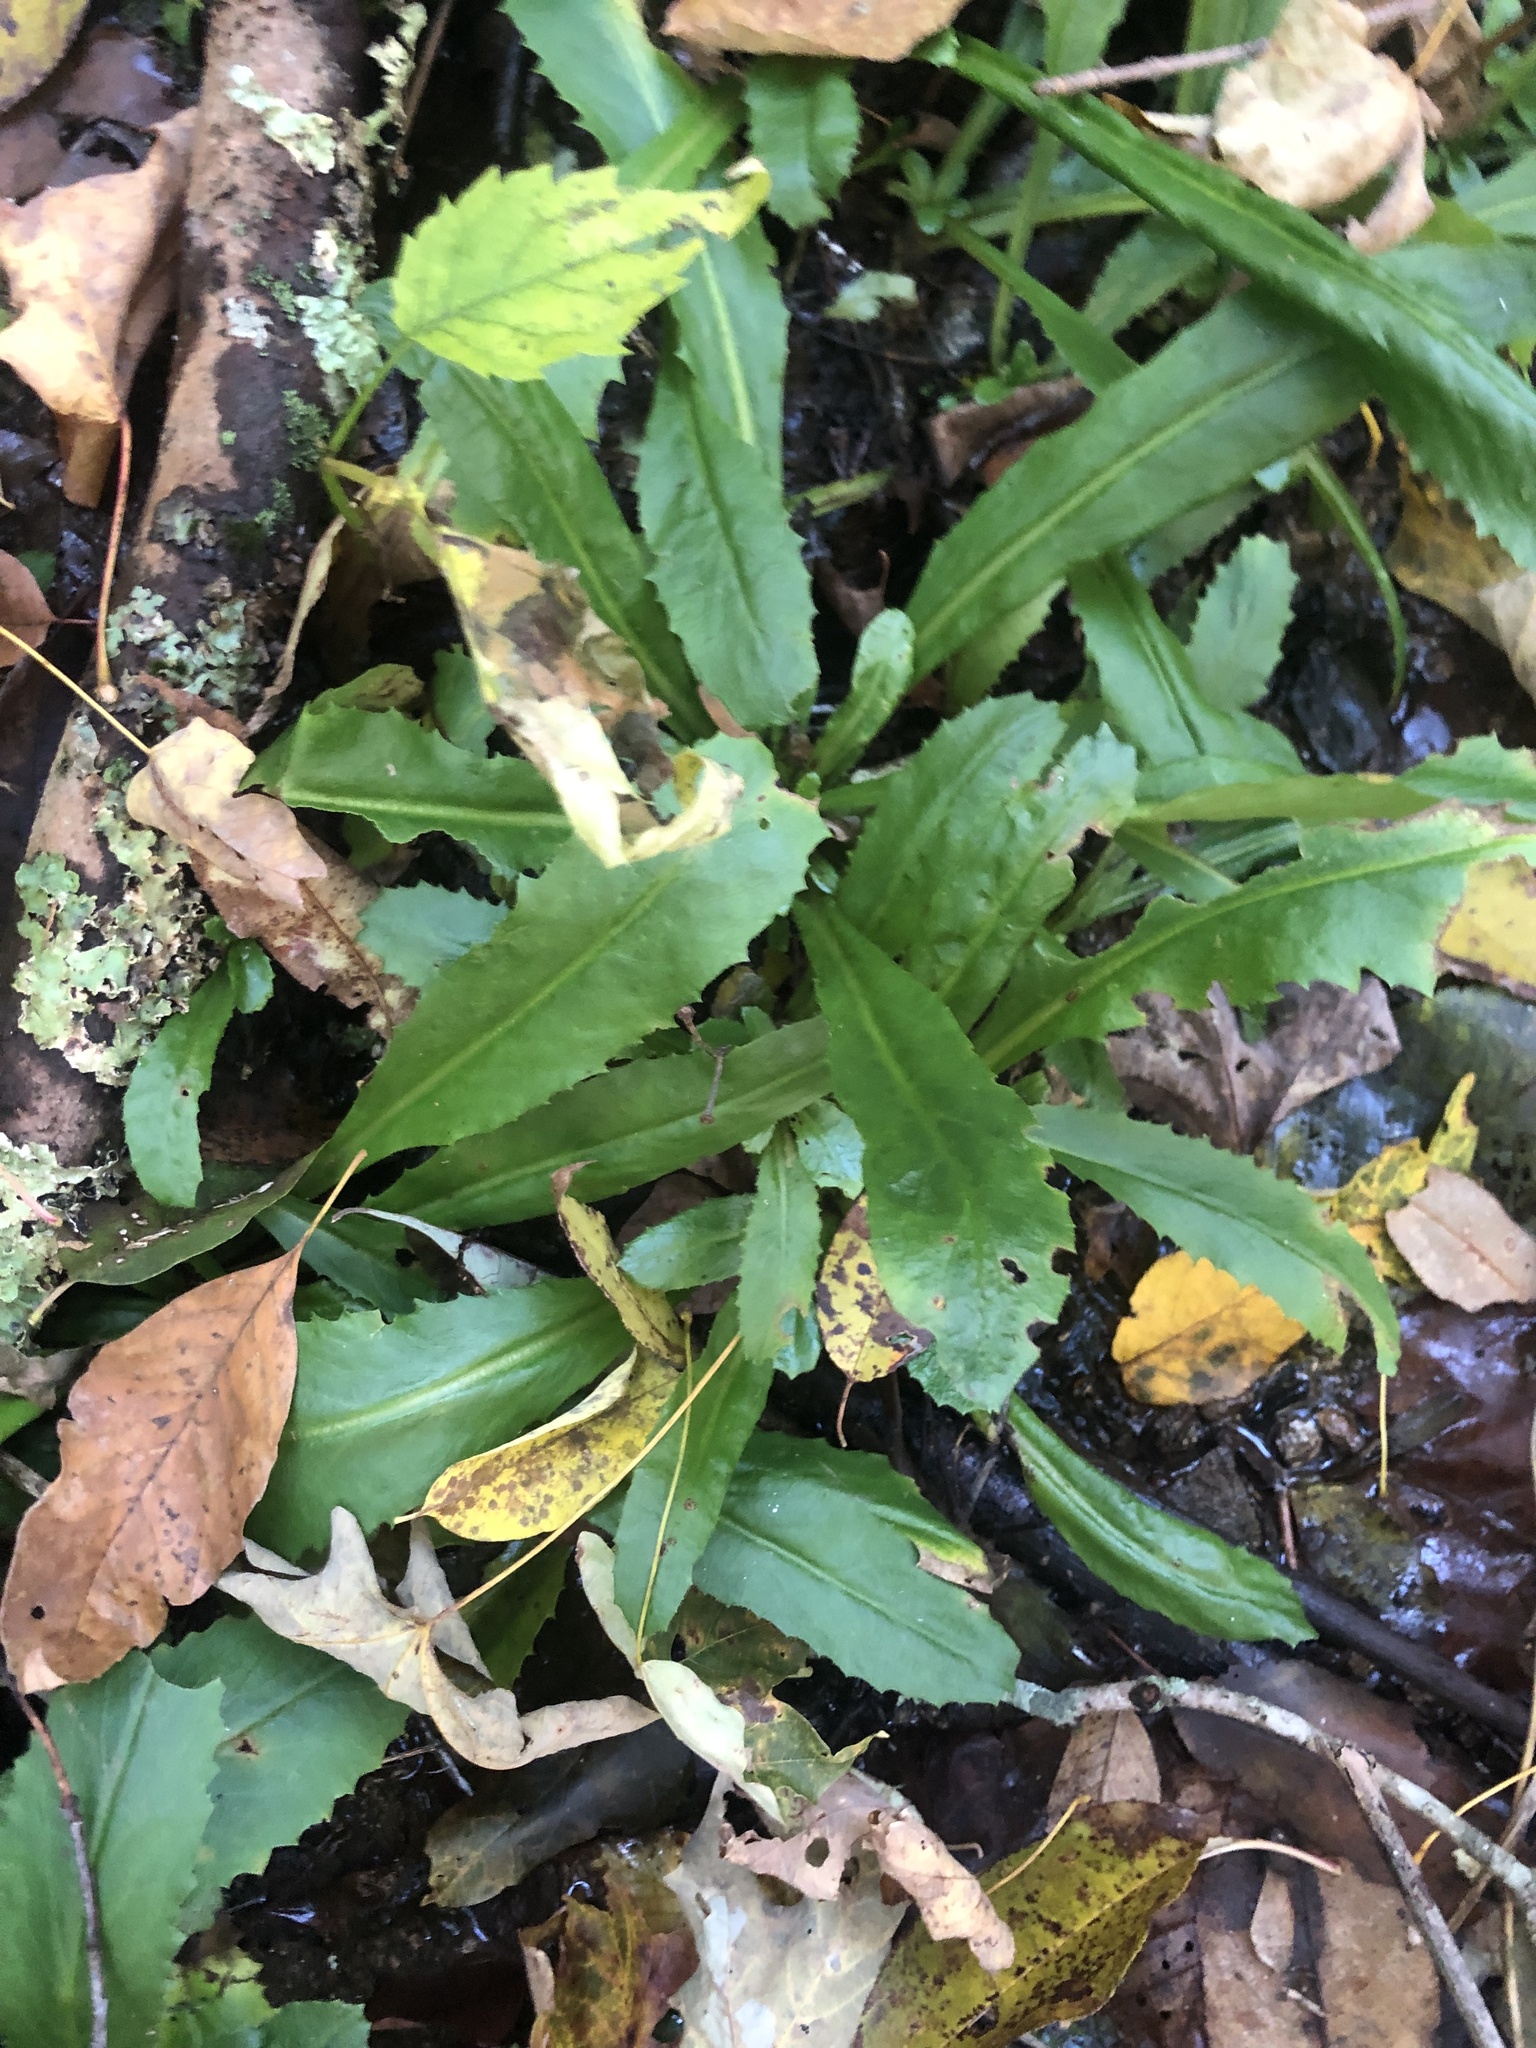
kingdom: Plantae
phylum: Tracheophyta
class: Magnoliopsida
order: Saxifragales
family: Saxifragaceae
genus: Micranthes
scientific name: Micranthes micranthidifolia
